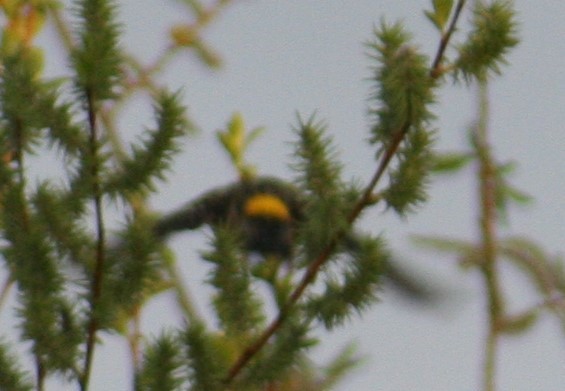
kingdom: Animalia
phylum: Chordata
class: Aves
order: Passeriformes
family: Parulidae
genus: Setophaga
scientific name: Setophaga coronata
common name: Myrtle warbler
